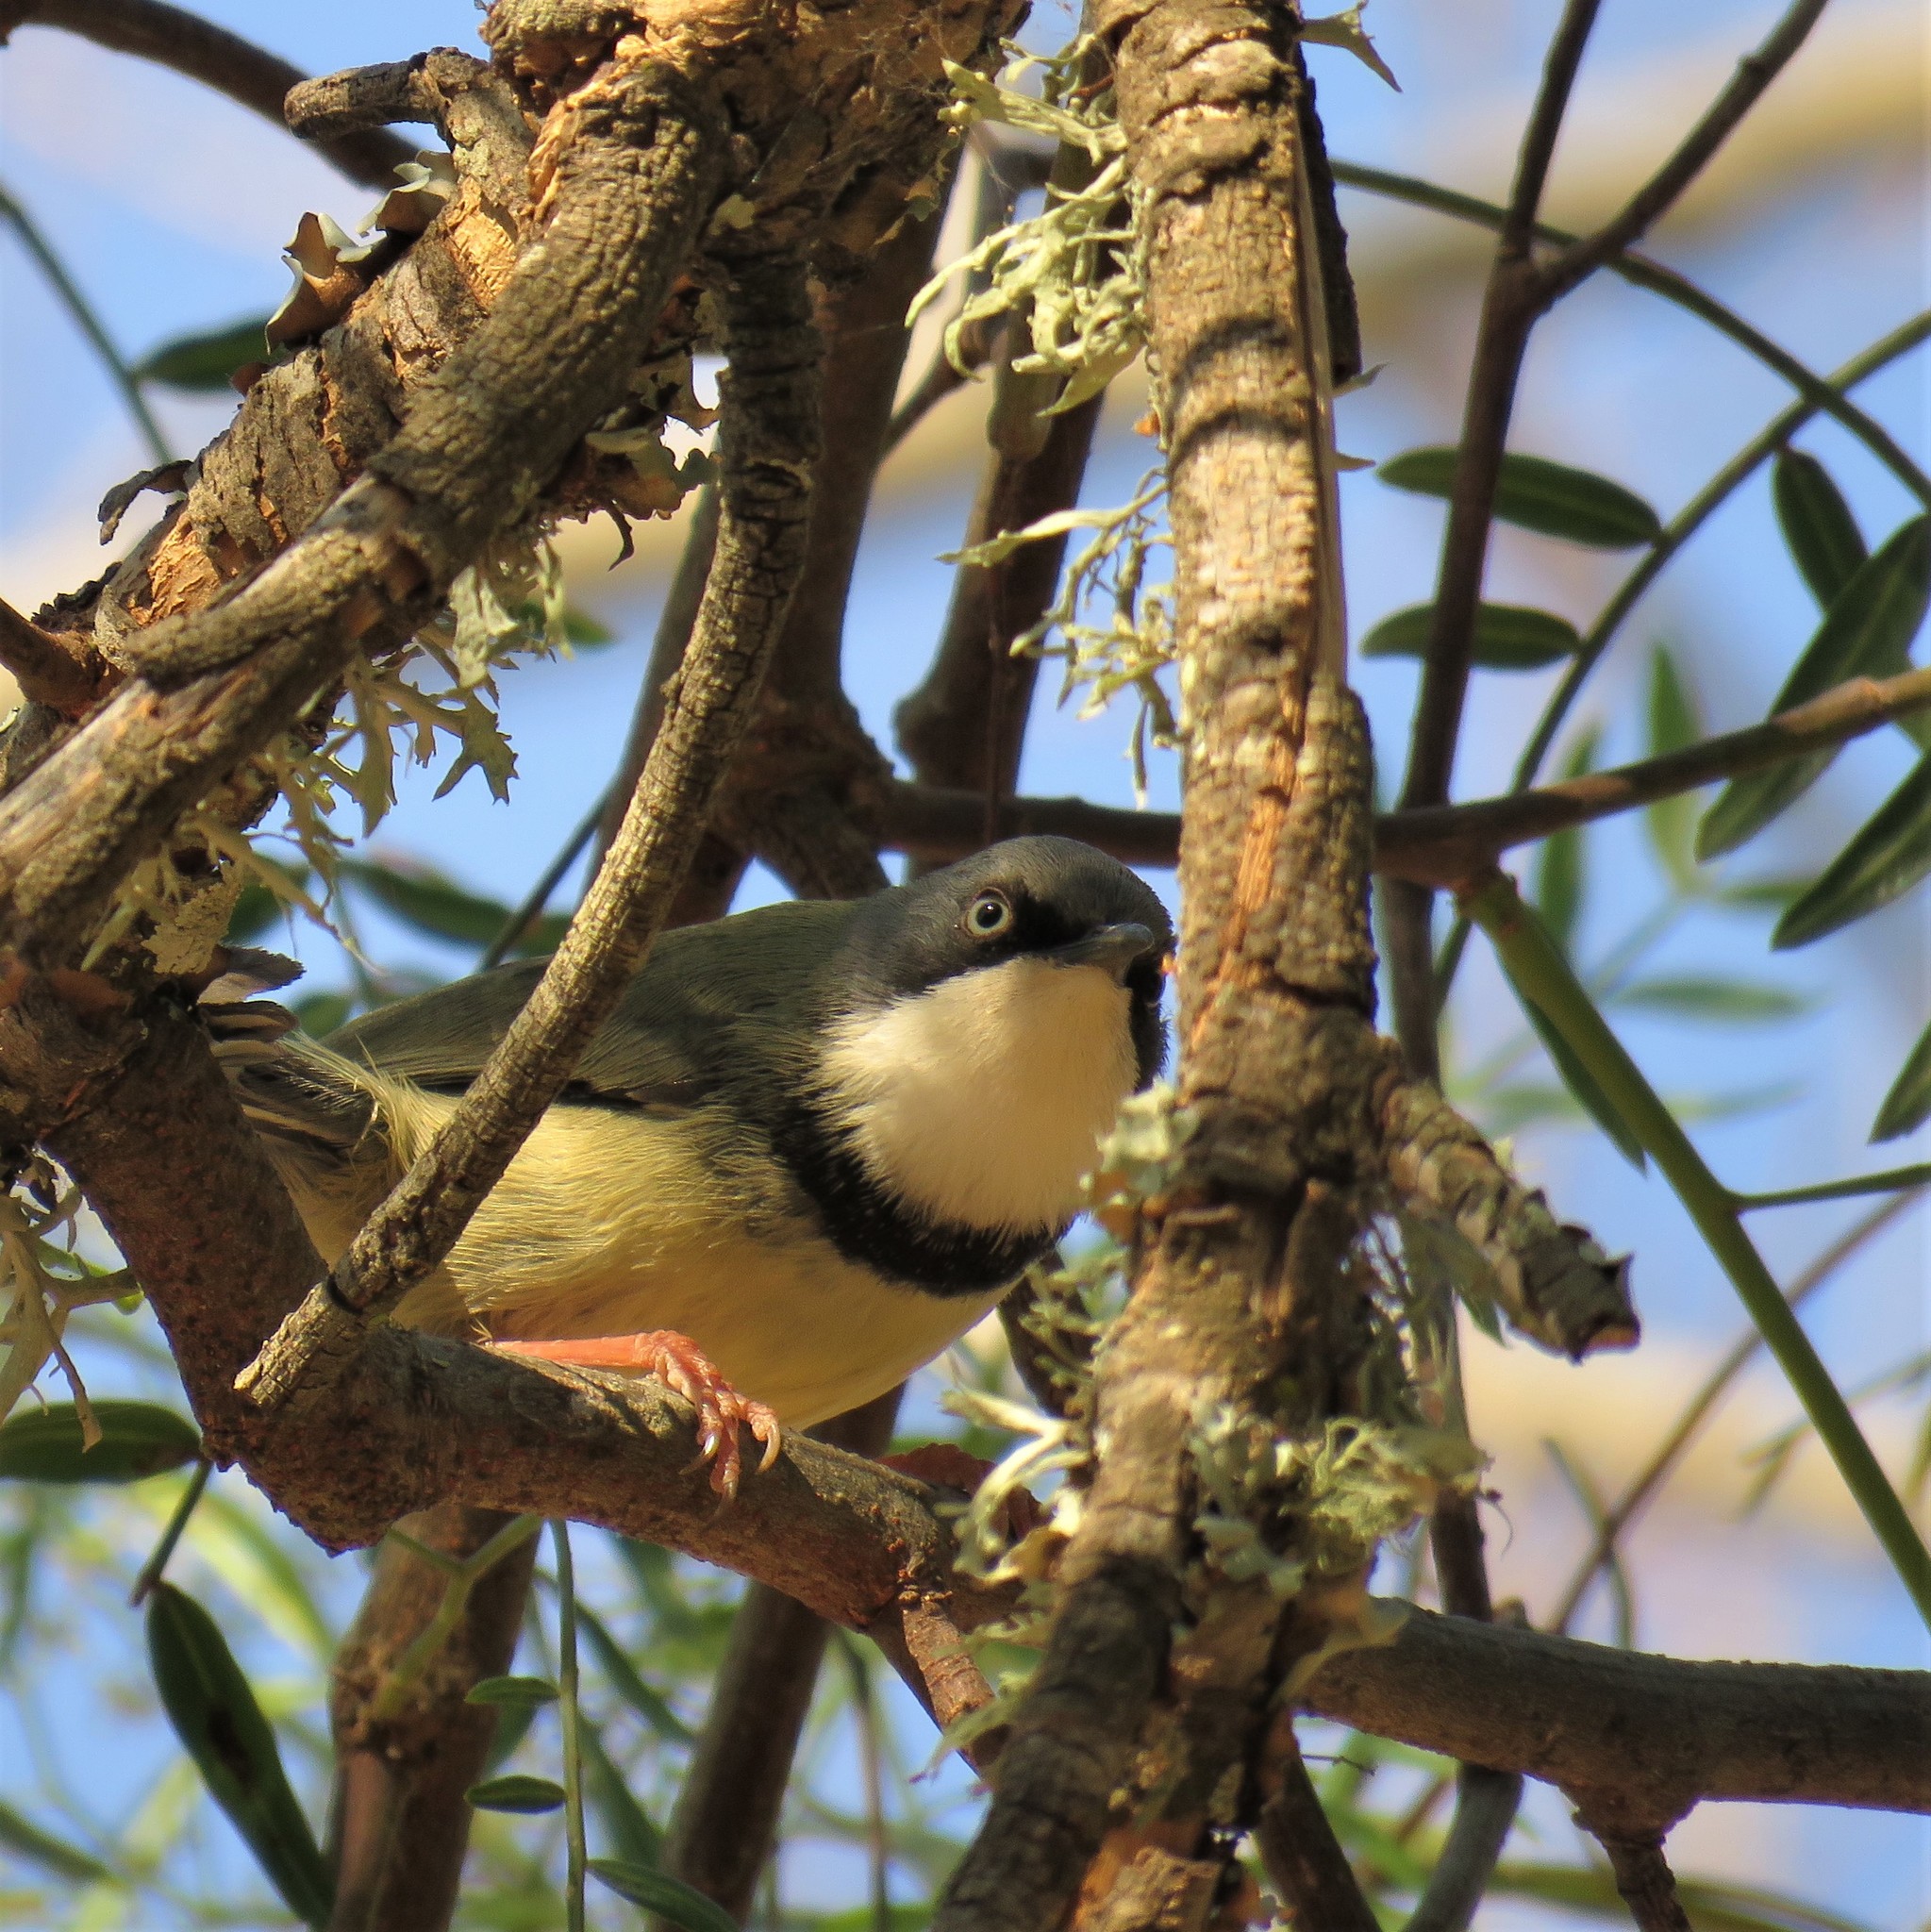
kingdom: Animalia
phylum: Chordata
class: Aves
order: Passeriformes
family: Cisticolidae
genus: Apalis
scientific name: Apalis thoracica
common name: Bar-throated apalis
